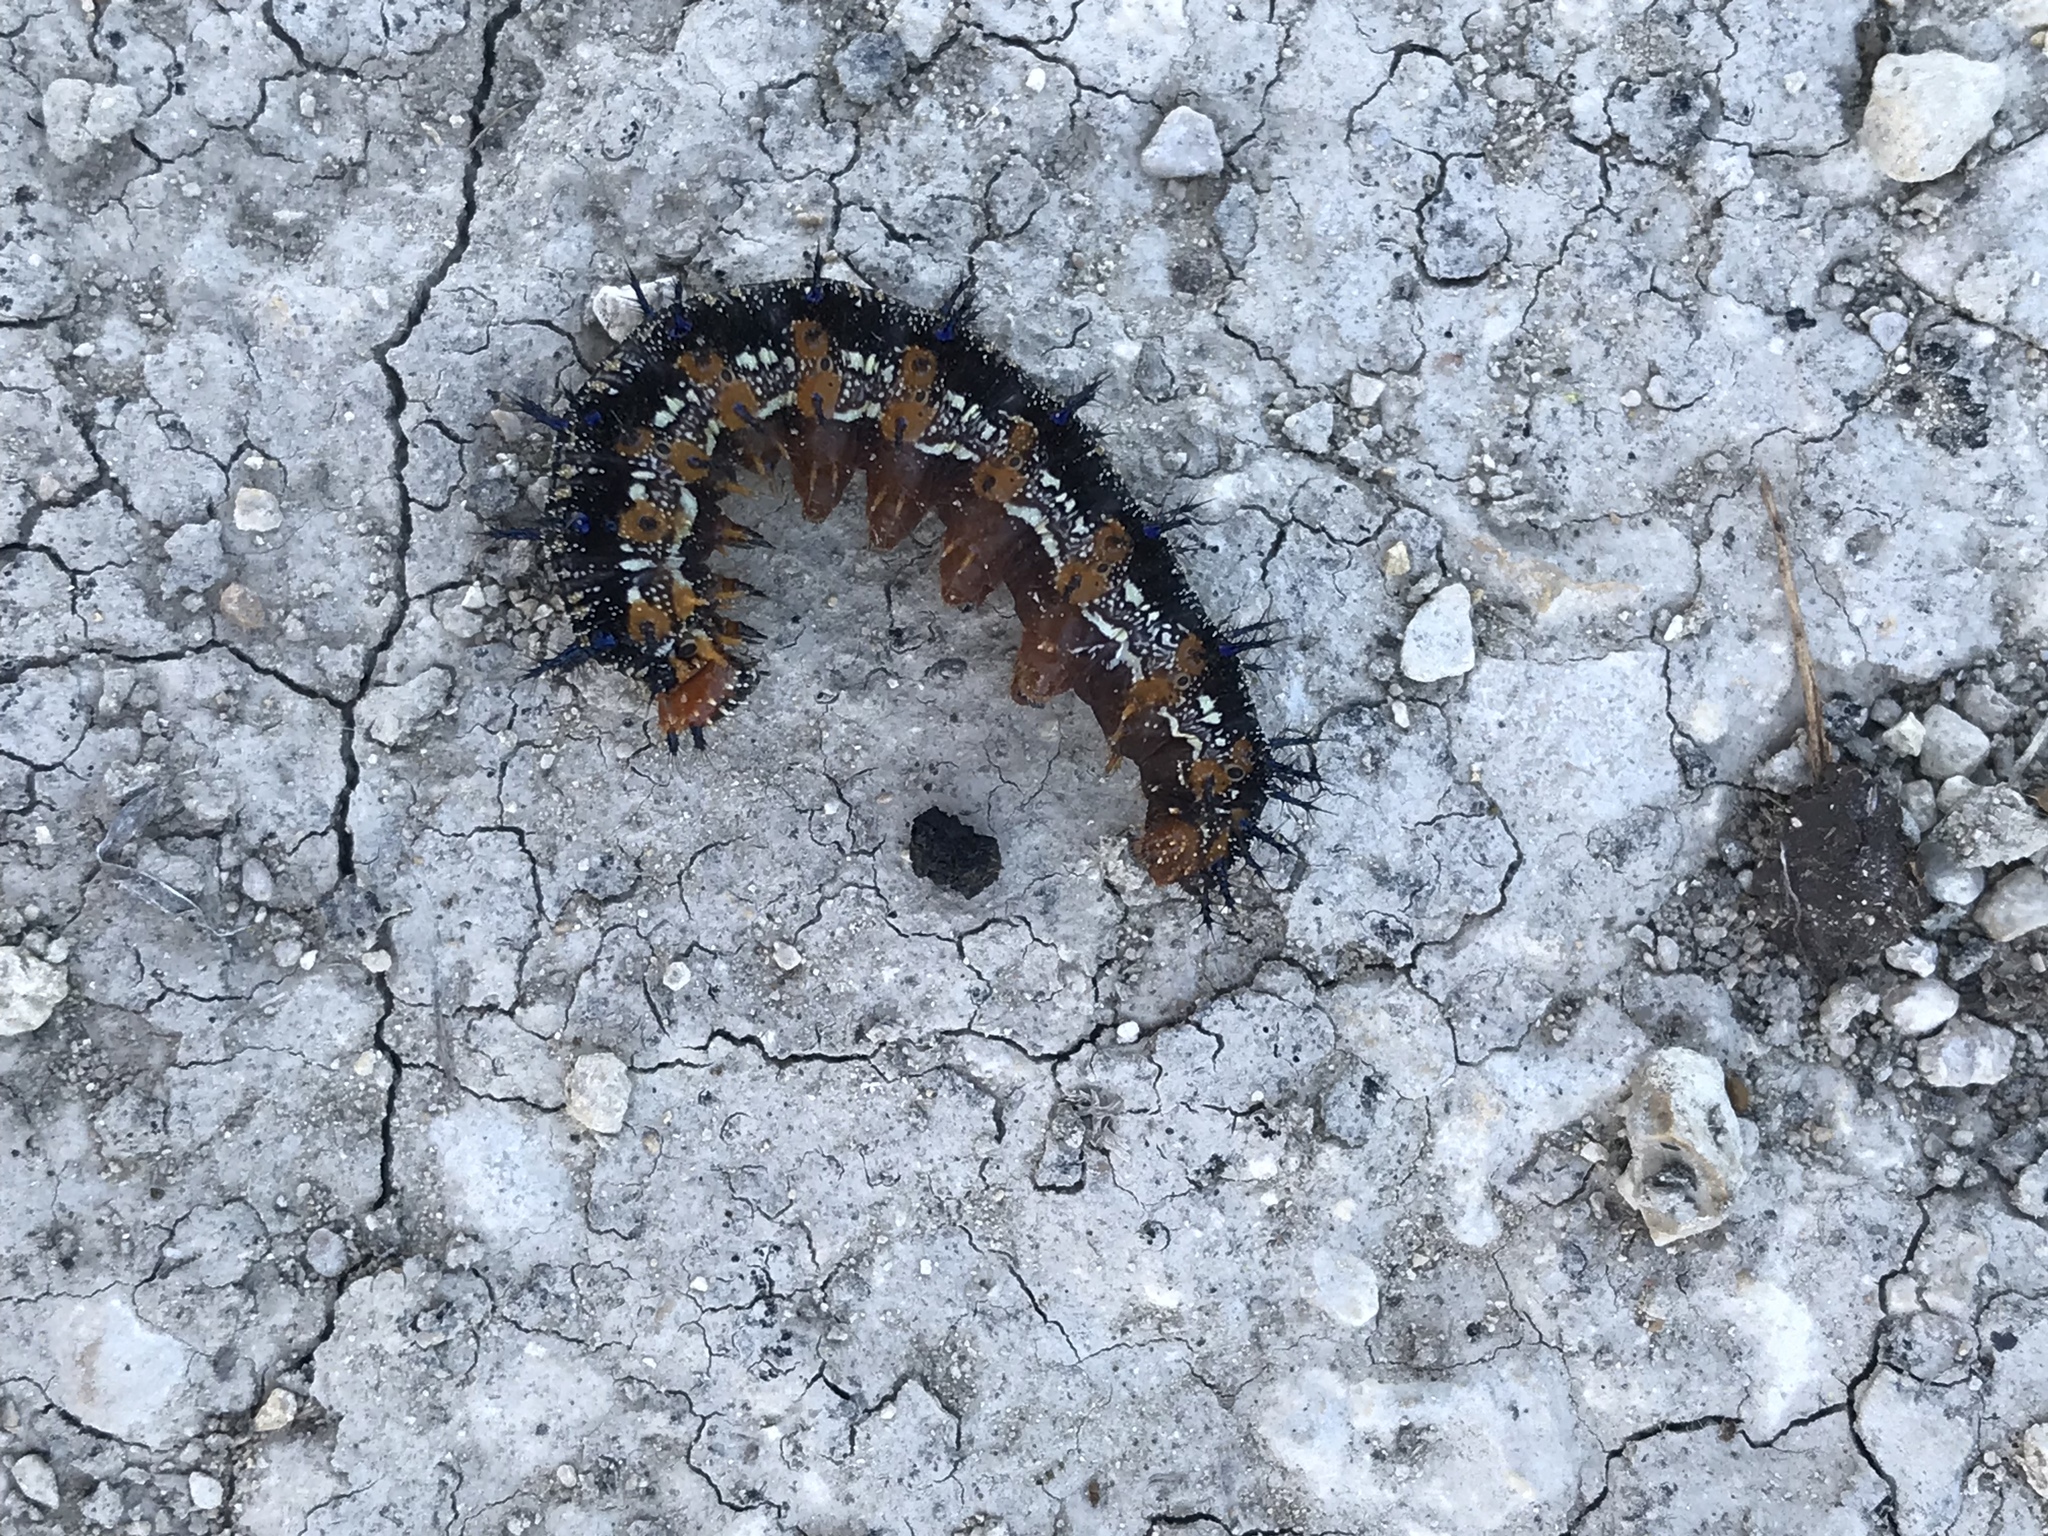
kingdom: Animalia
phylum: Arthropoda
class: Insecta
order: Lepidoptera
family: Nymphalidae
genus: Junonia
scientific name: Junonia coenia
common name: Common buckeye
